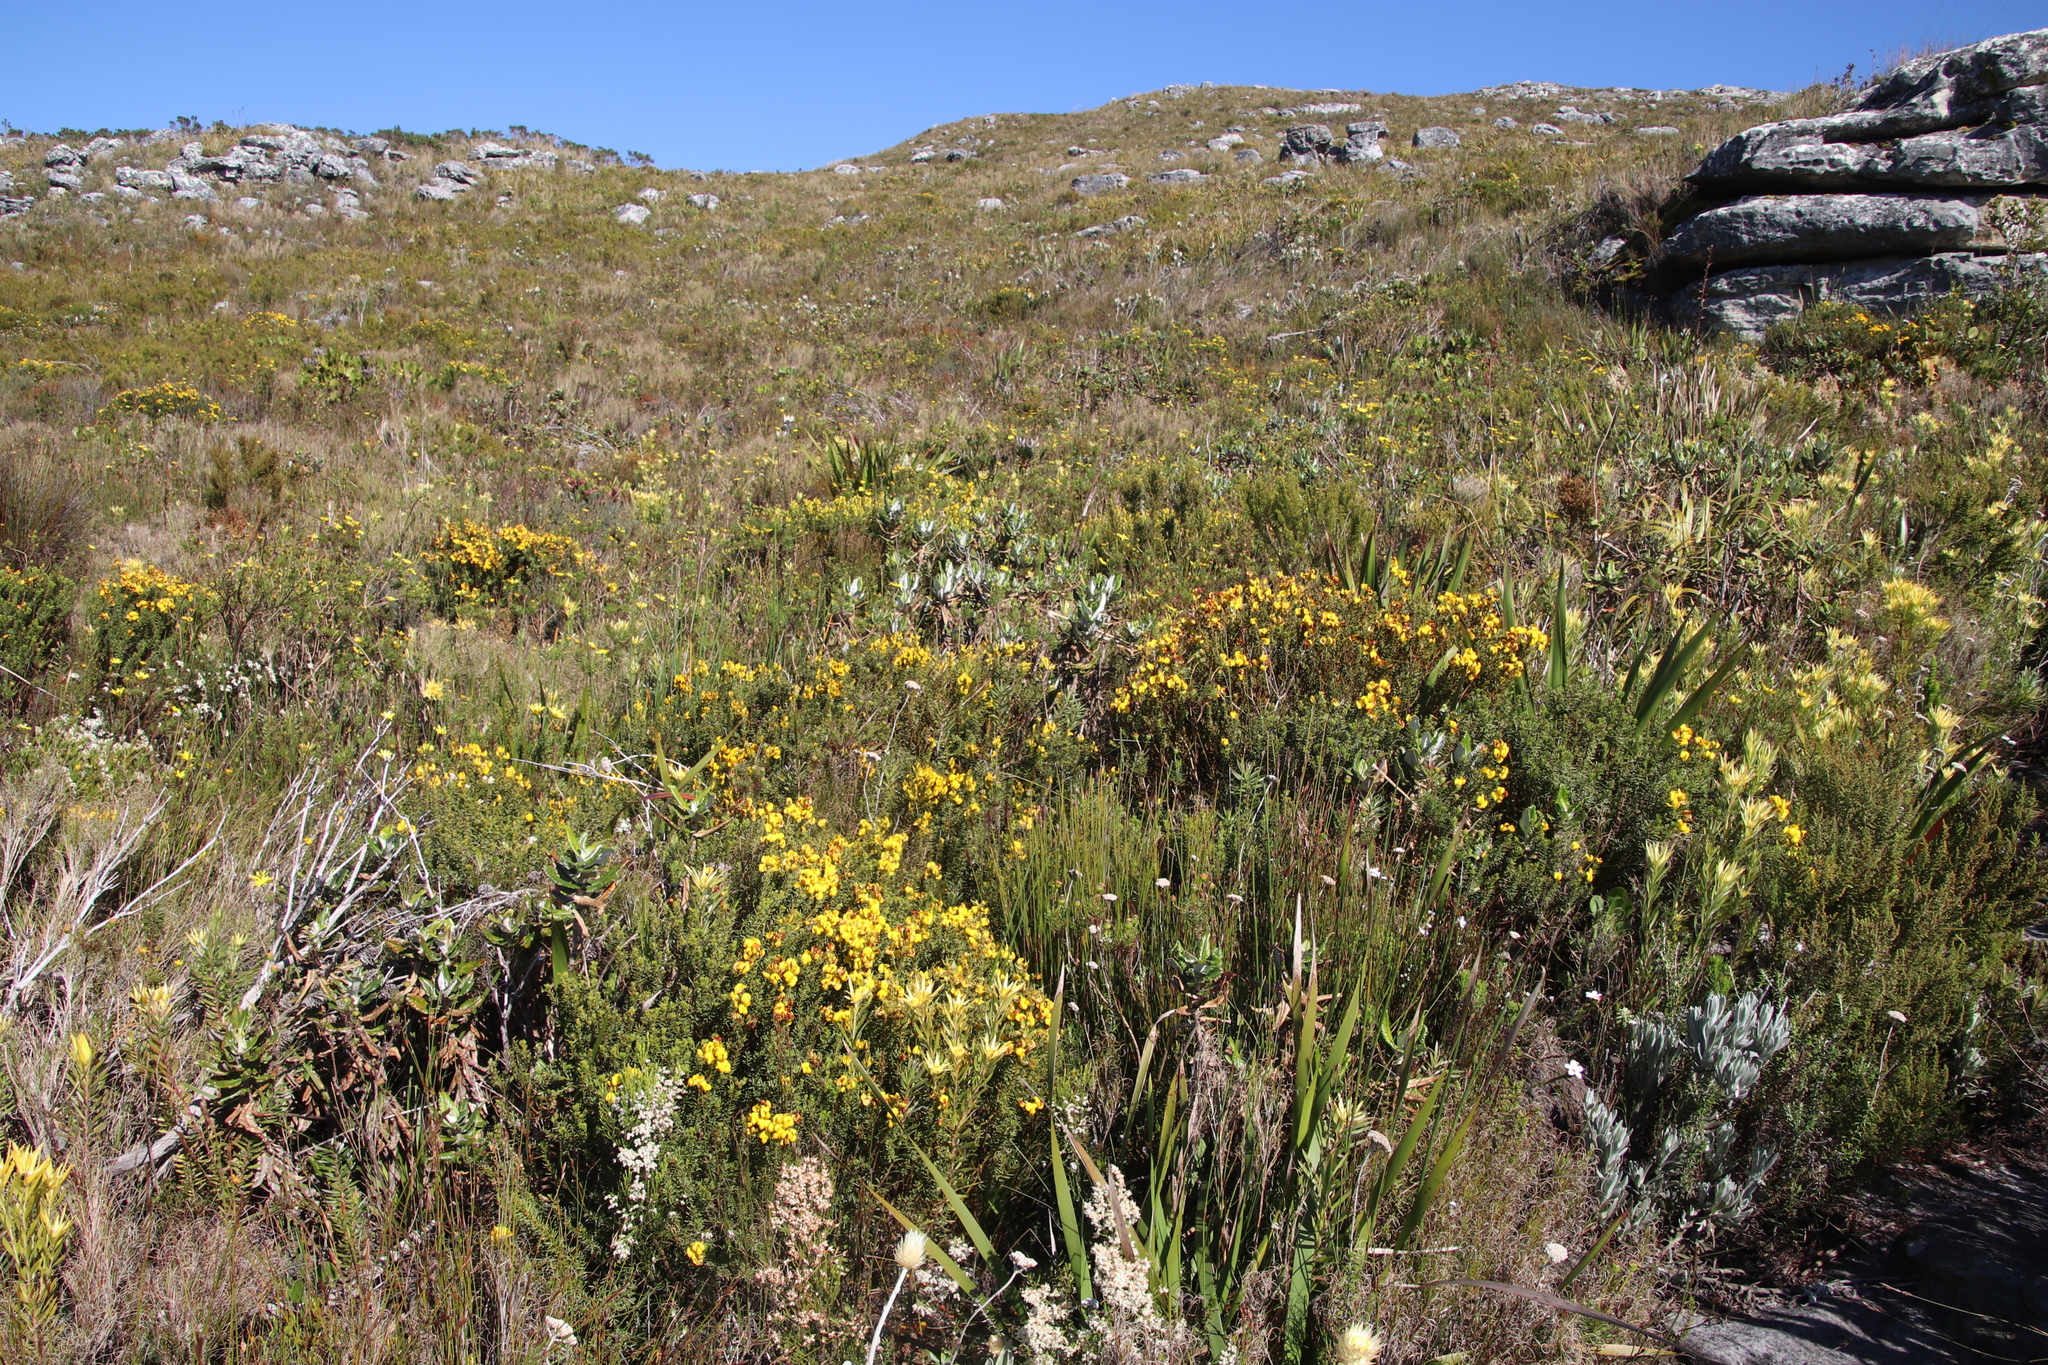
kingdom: Plantae
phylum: Tracheophyta
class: Magnoliopsida
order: Fabales
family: Fabaceae
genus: Cyclopia
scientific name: Cyclopia genistoides
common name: Honeybush tea
